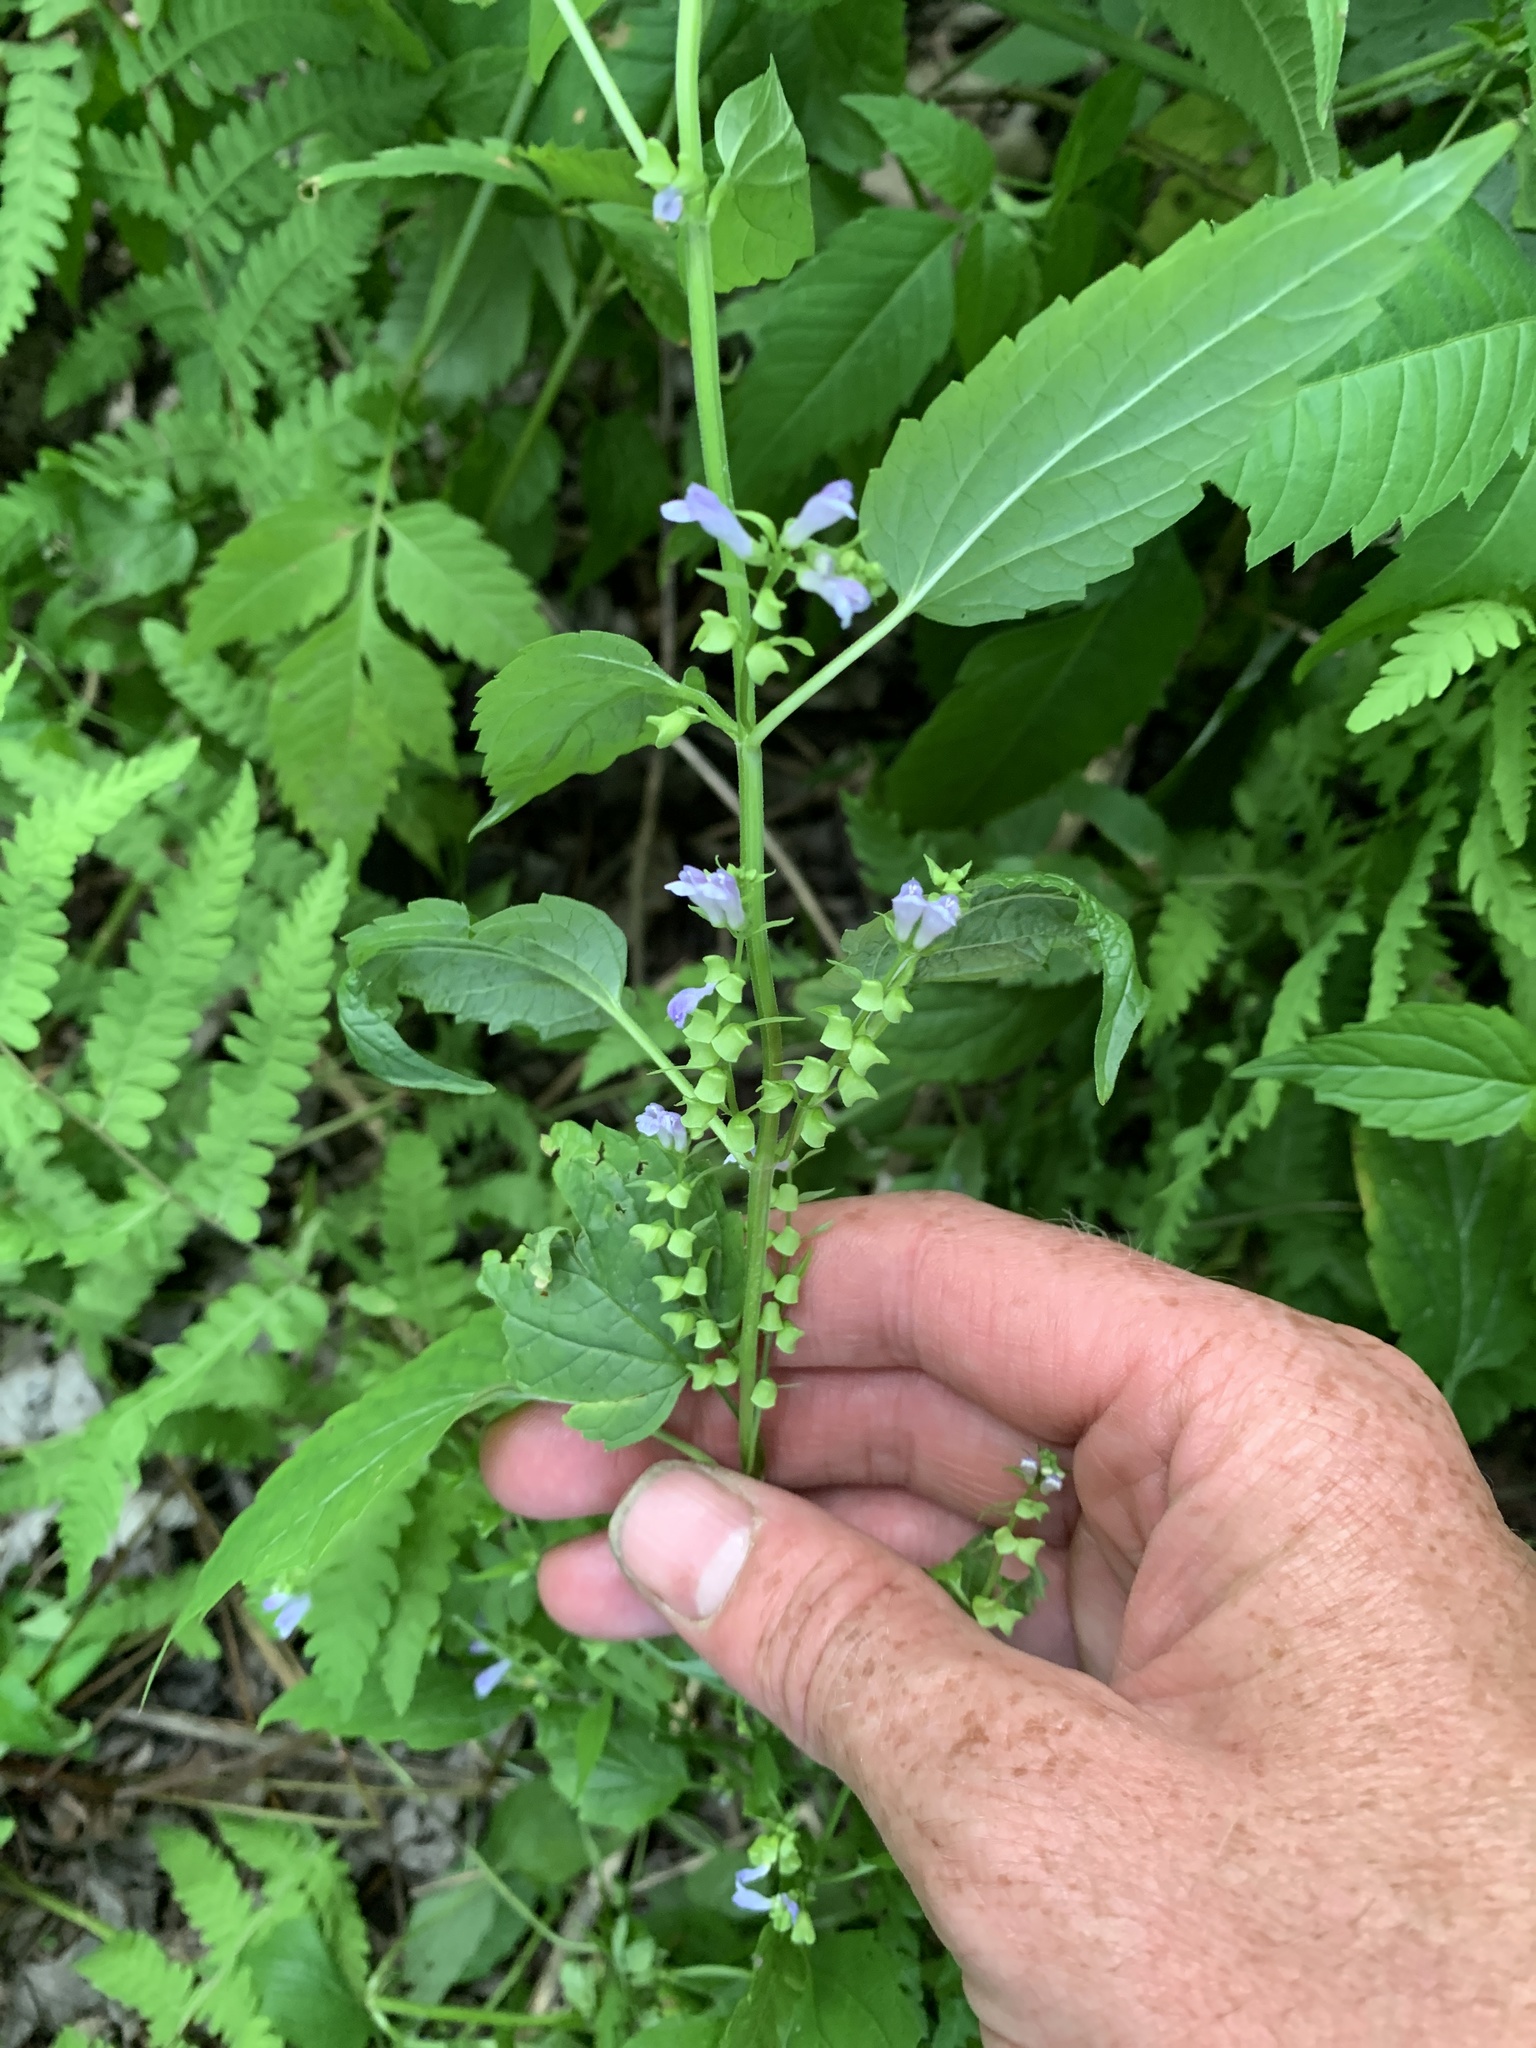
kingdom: Plantae
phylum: Tracheophyta
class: Magnoliopsida
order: Lamiales
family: Lamiaceae
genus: Scutellaria
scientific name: Scutellaria lateriflora
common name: Blue skullcap
